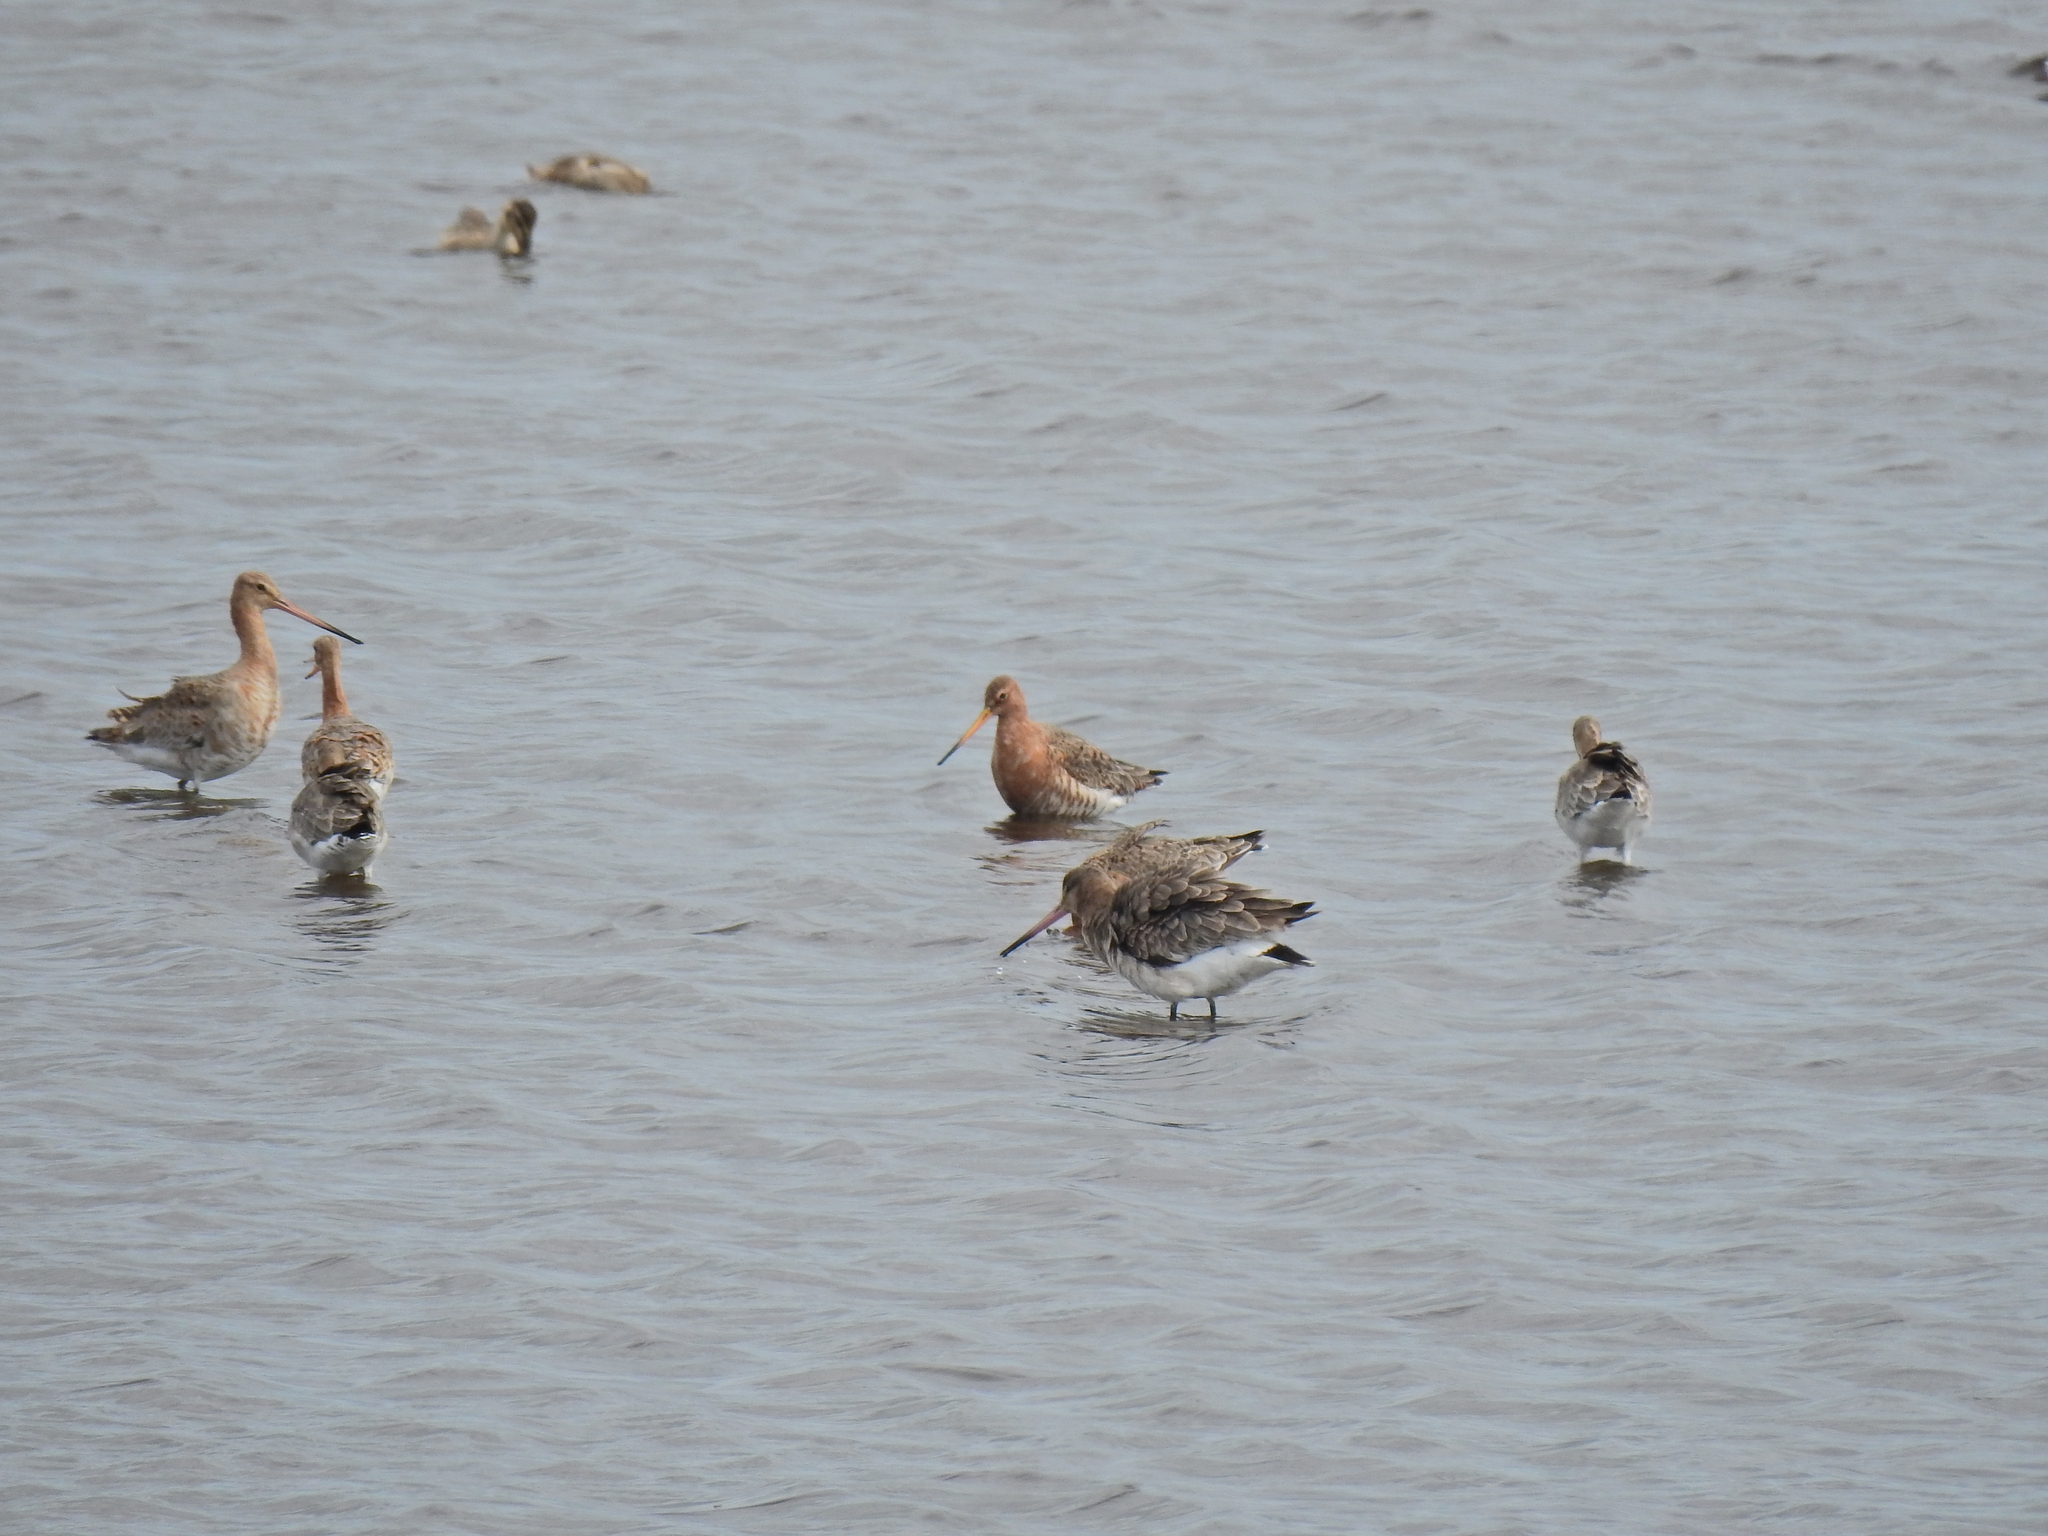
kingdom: Animalia
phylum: Chordata
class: Aves
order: Charadriiformes
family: Scolopacidae
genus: Limosa
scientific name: Limosa limosa
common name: Black-tailed godwit
